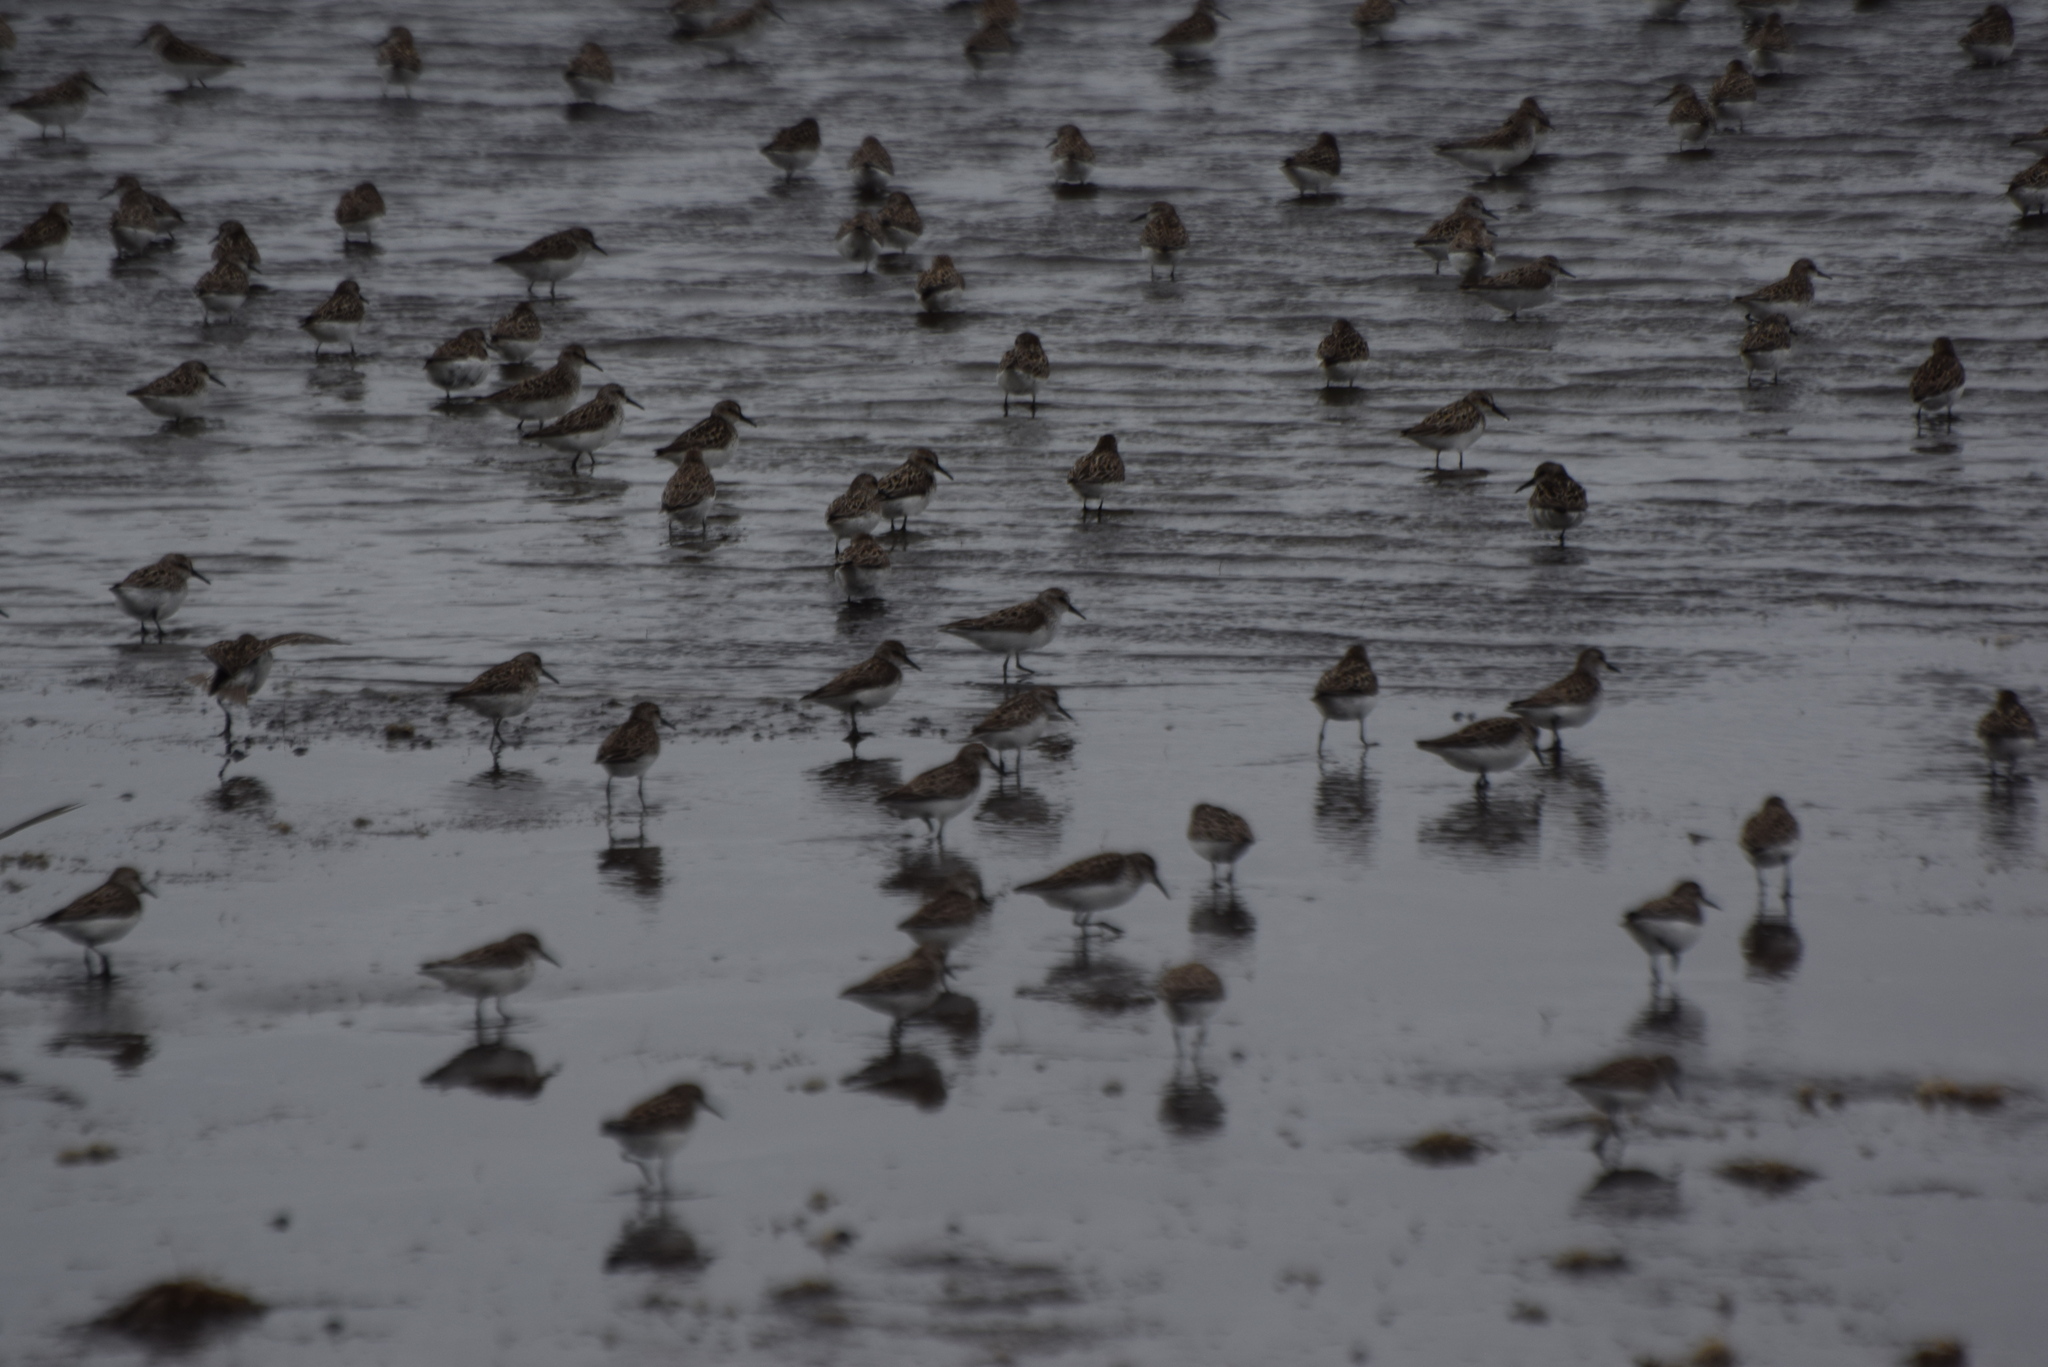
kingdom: Animalia
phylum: Chordata
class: Aves
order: Charadriiformes
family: Scolopacidae
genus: Calidris
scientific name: Calidris pusilla
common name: Semipalmated sandpiper
